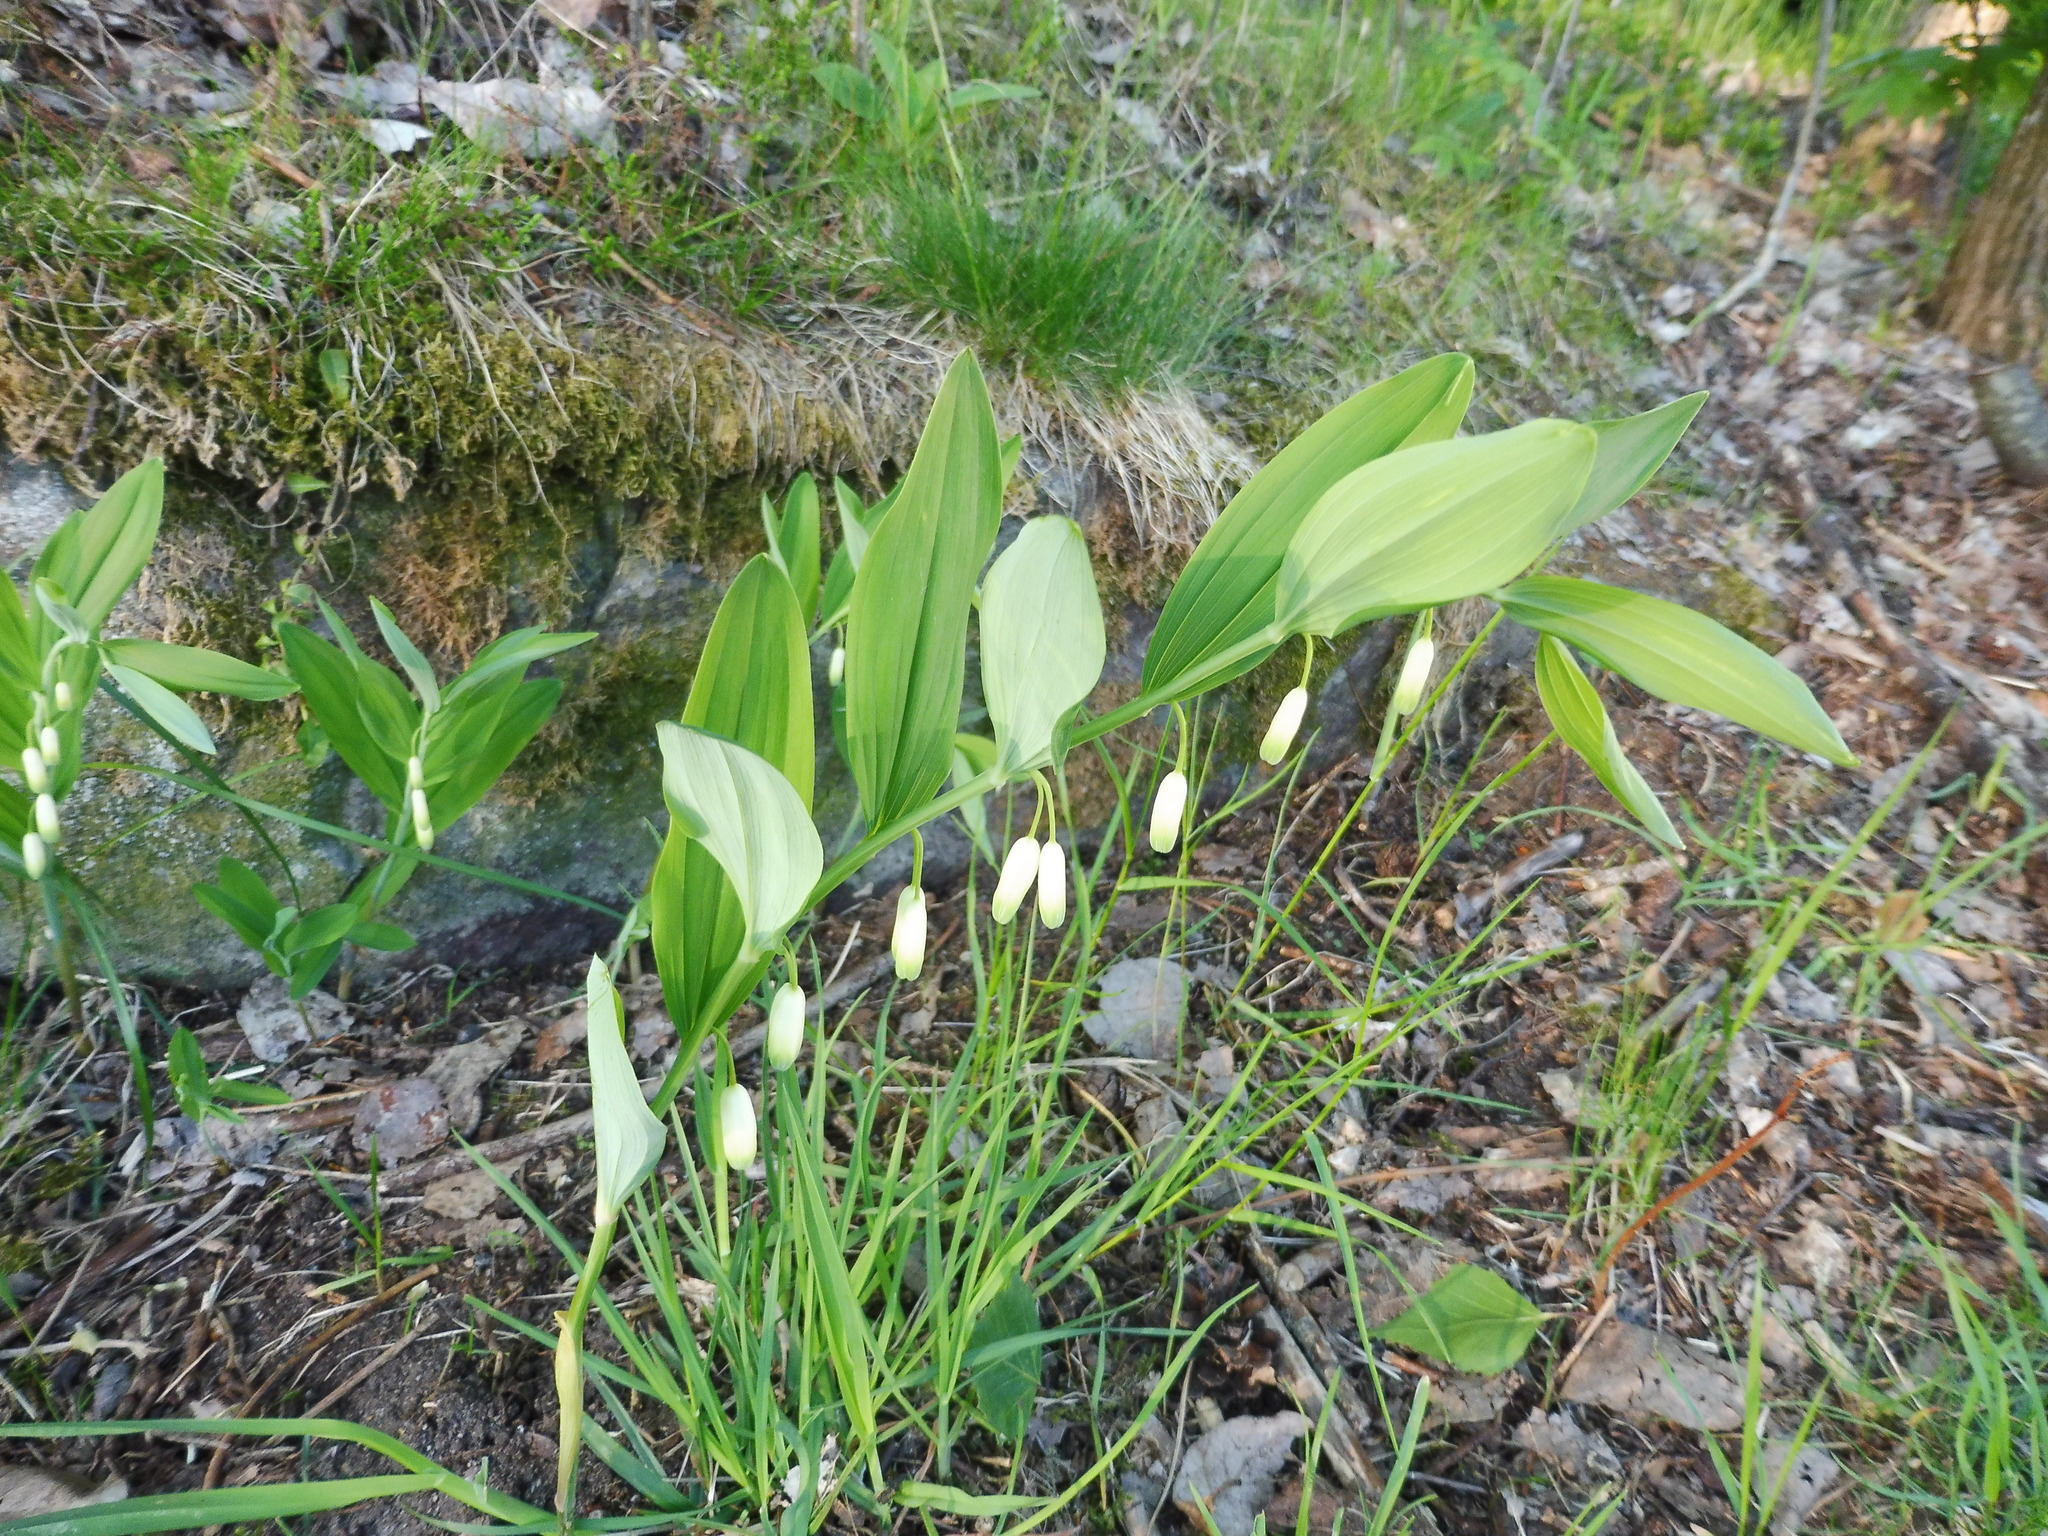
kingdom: Plantae
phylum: Tracheophyta
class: Liliopsida
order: Asparagales
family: Asparagaceae
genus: Polygonatum
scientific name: Polygonatum odoratum
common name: Angular solomon's-seal
